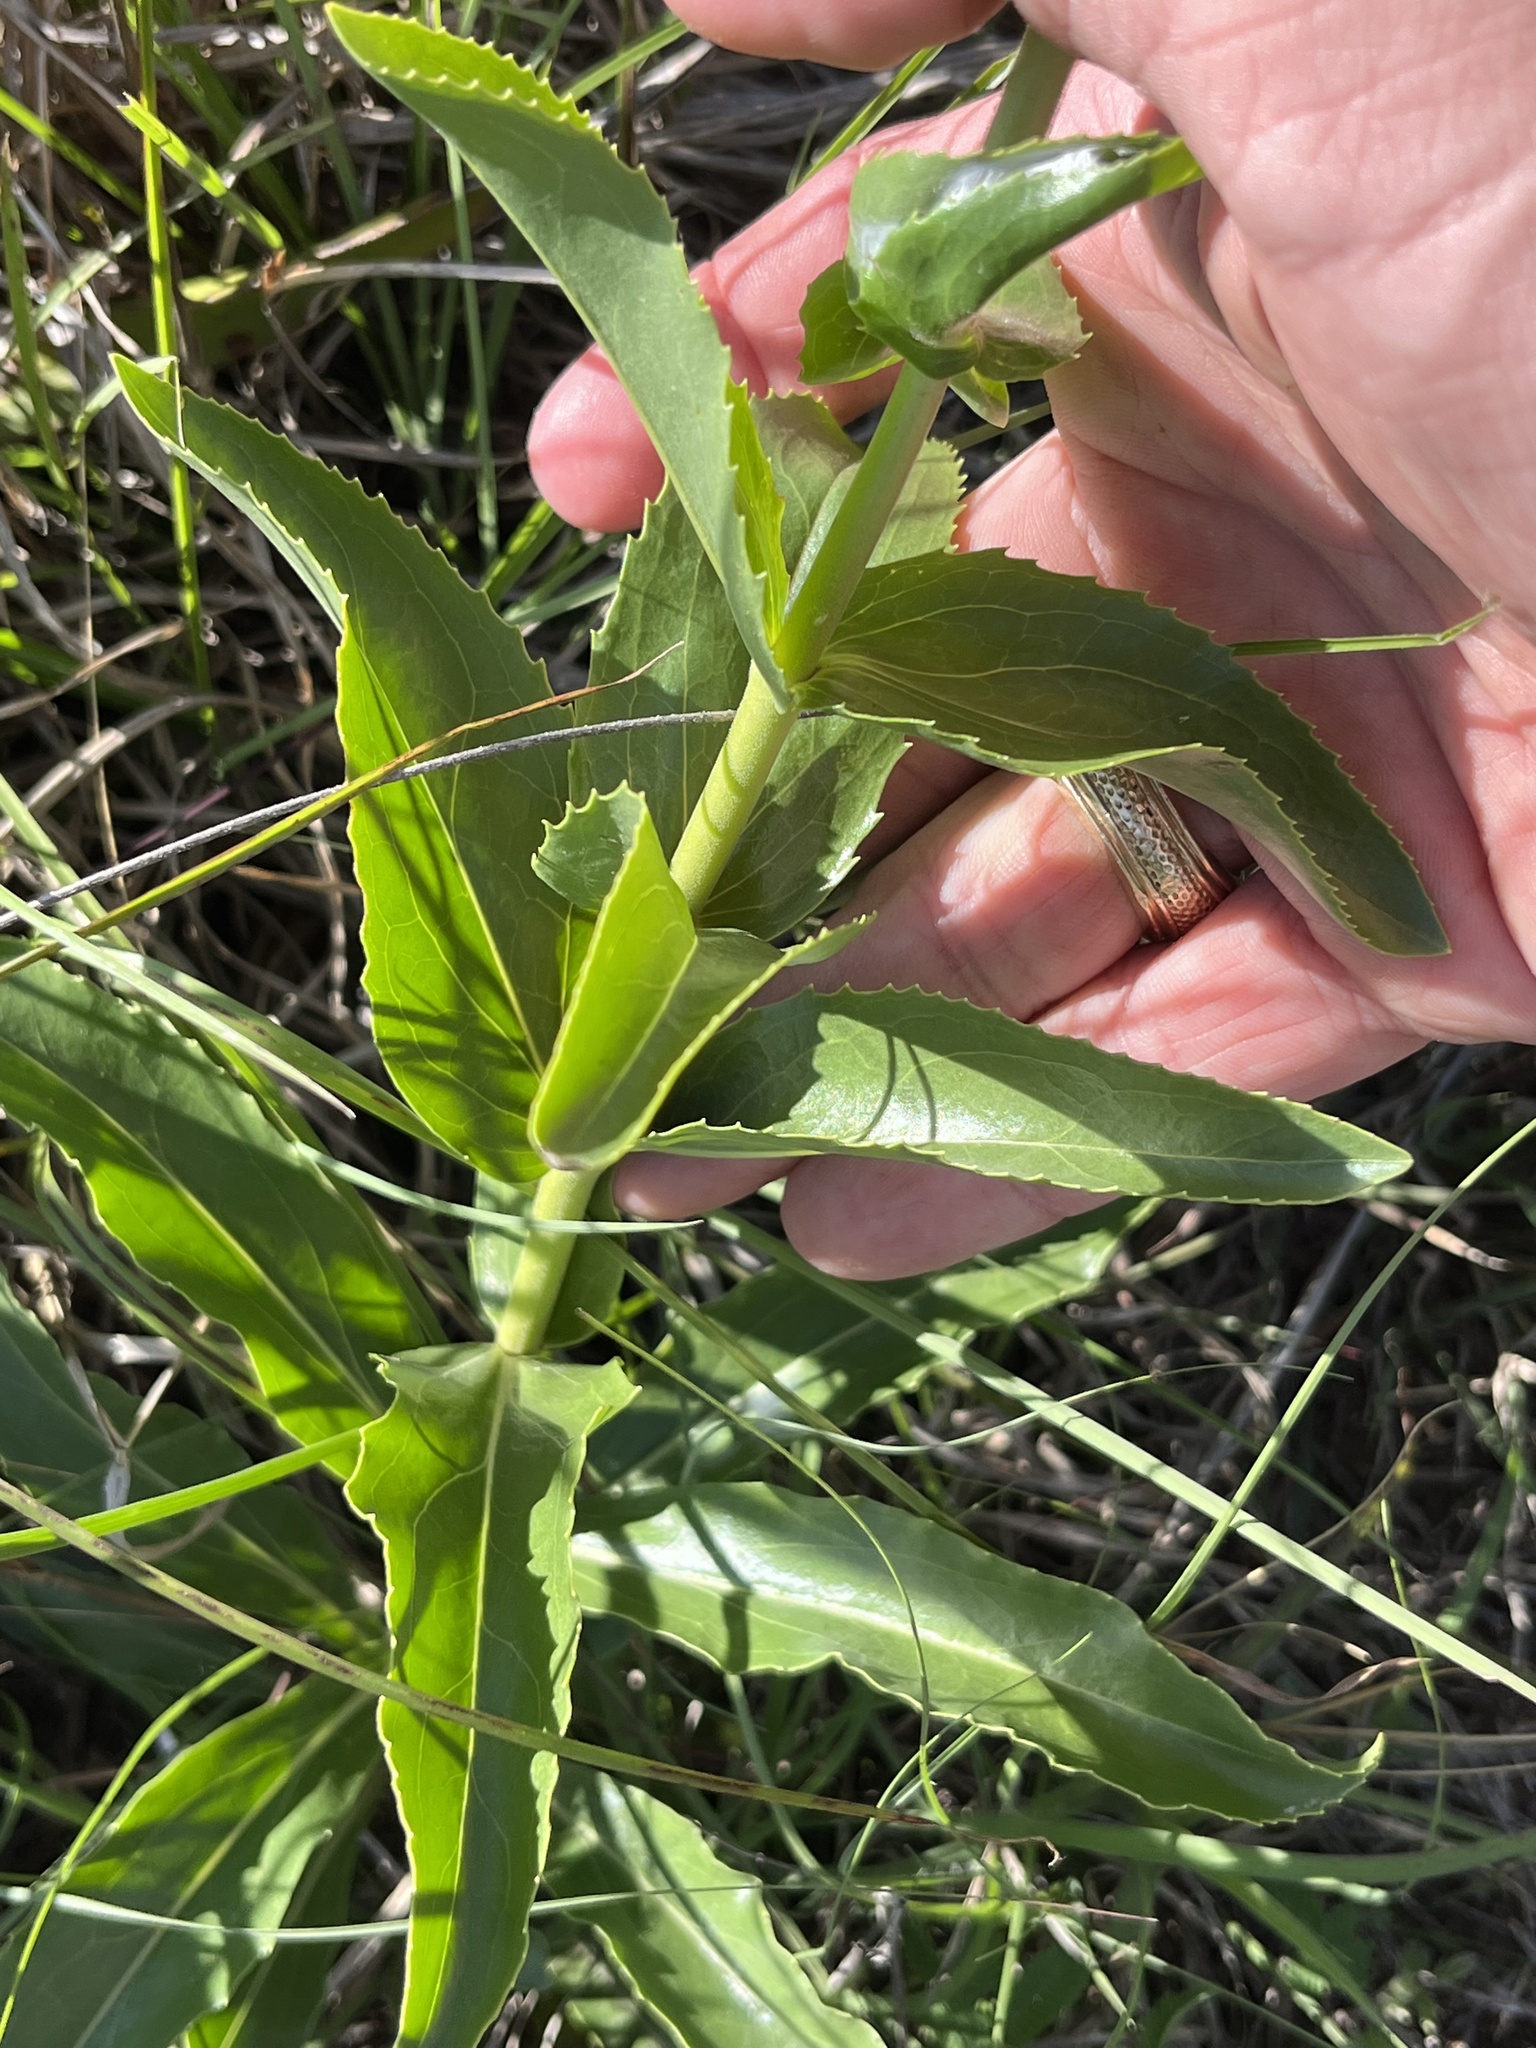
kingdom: Plantae
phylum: Tracheophyta
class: Magnoliopsida
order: Lamiales
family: Plantaginaceae
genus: Penstemon
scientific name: Penstemon cobaea
